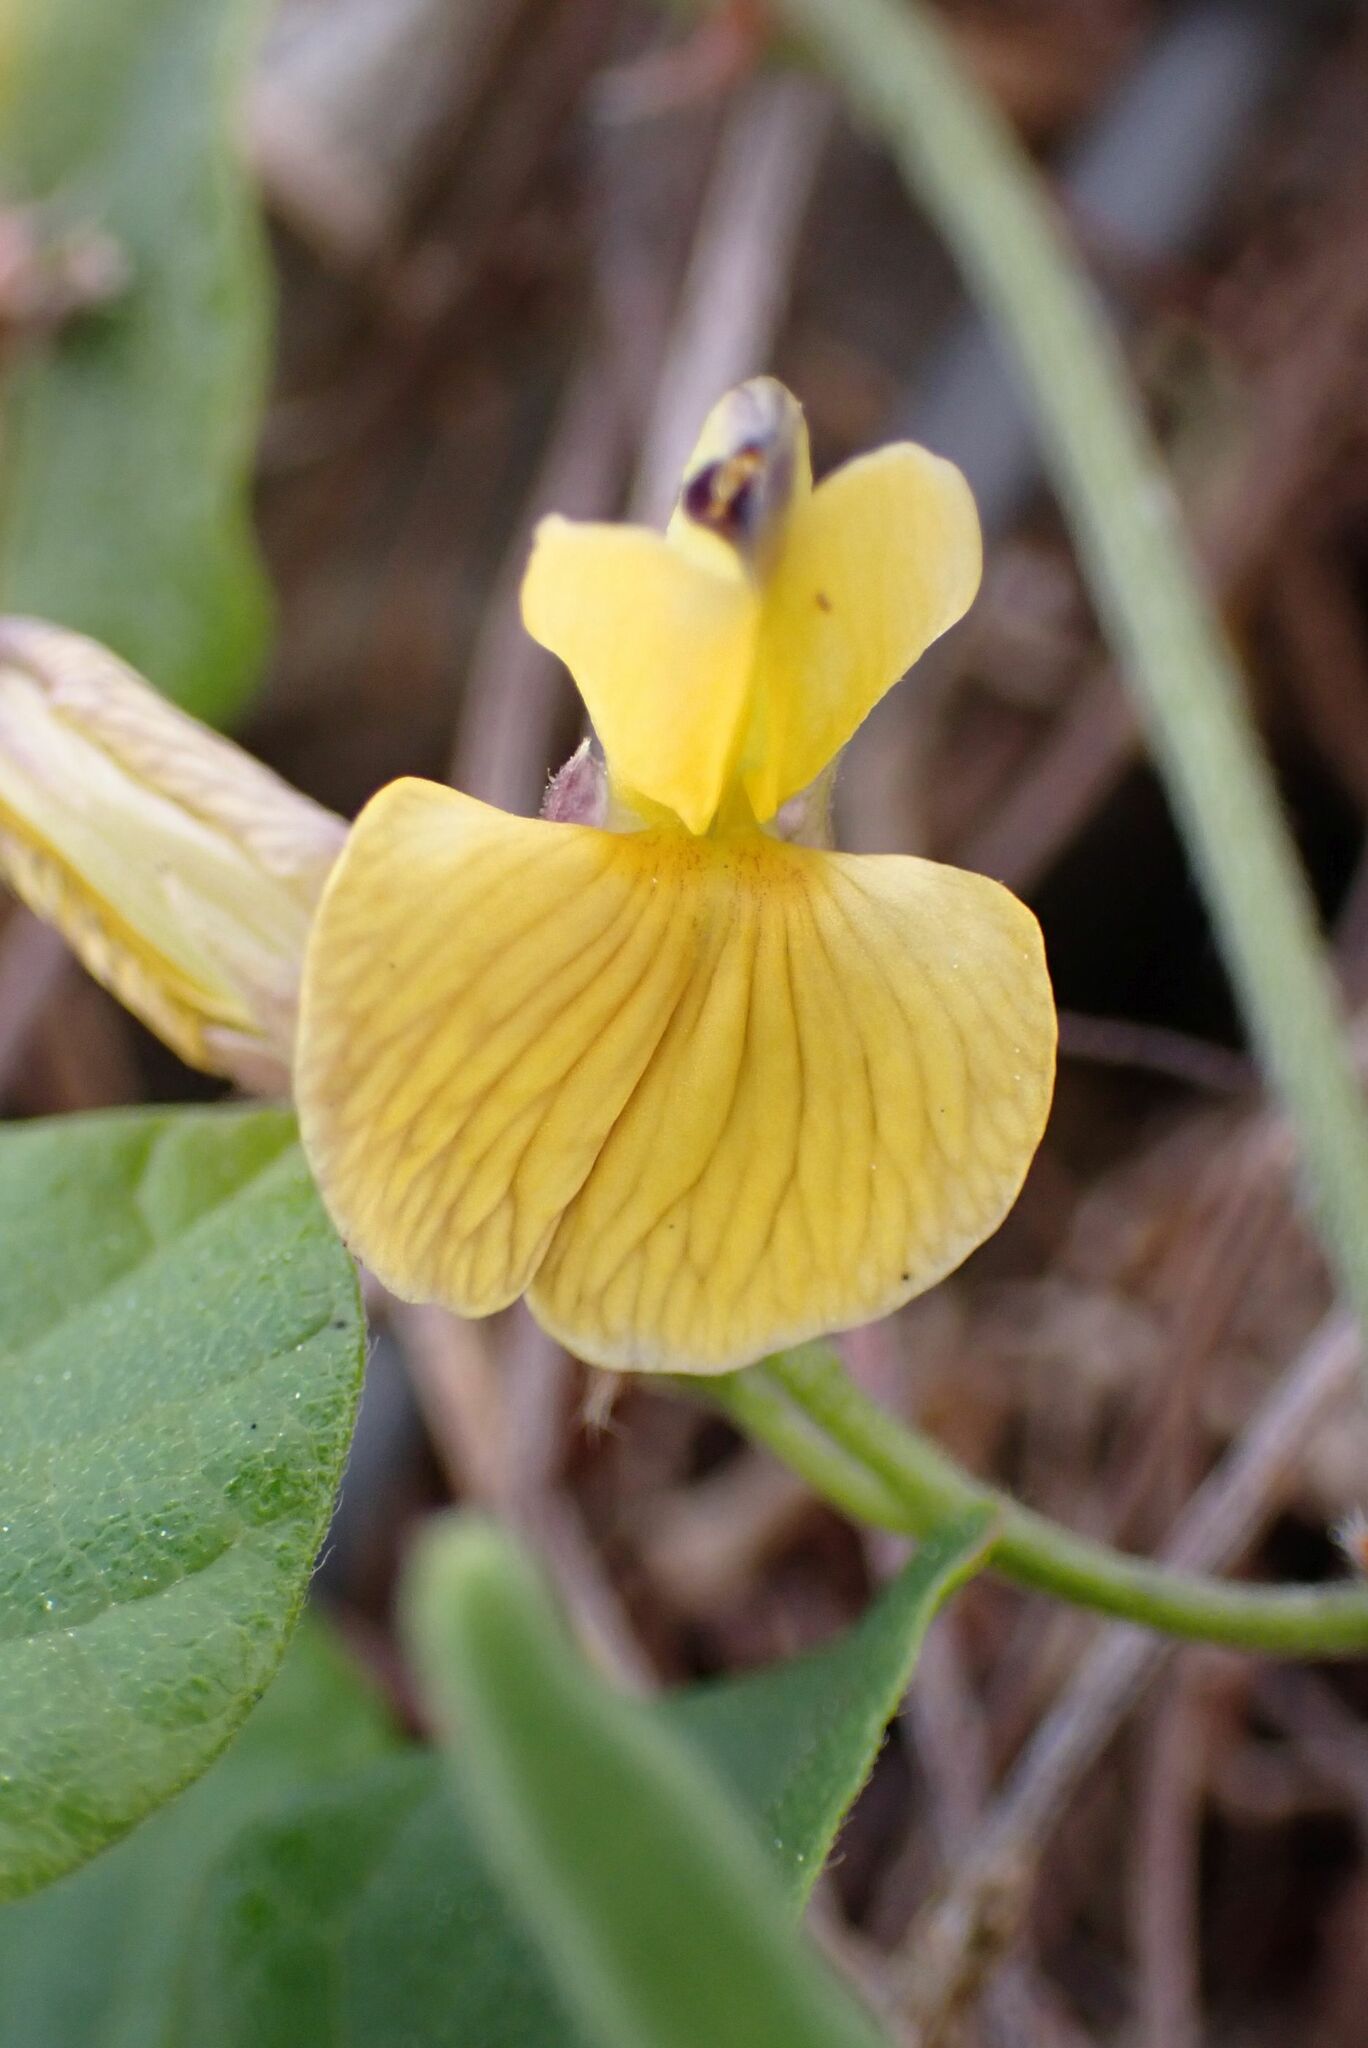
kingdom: Plantae
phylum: Tracheophyta
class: Magnoliopsida
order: Fabales
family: Fabaceae
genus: Rhynchosia
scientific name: Rhynchosia caribaea
